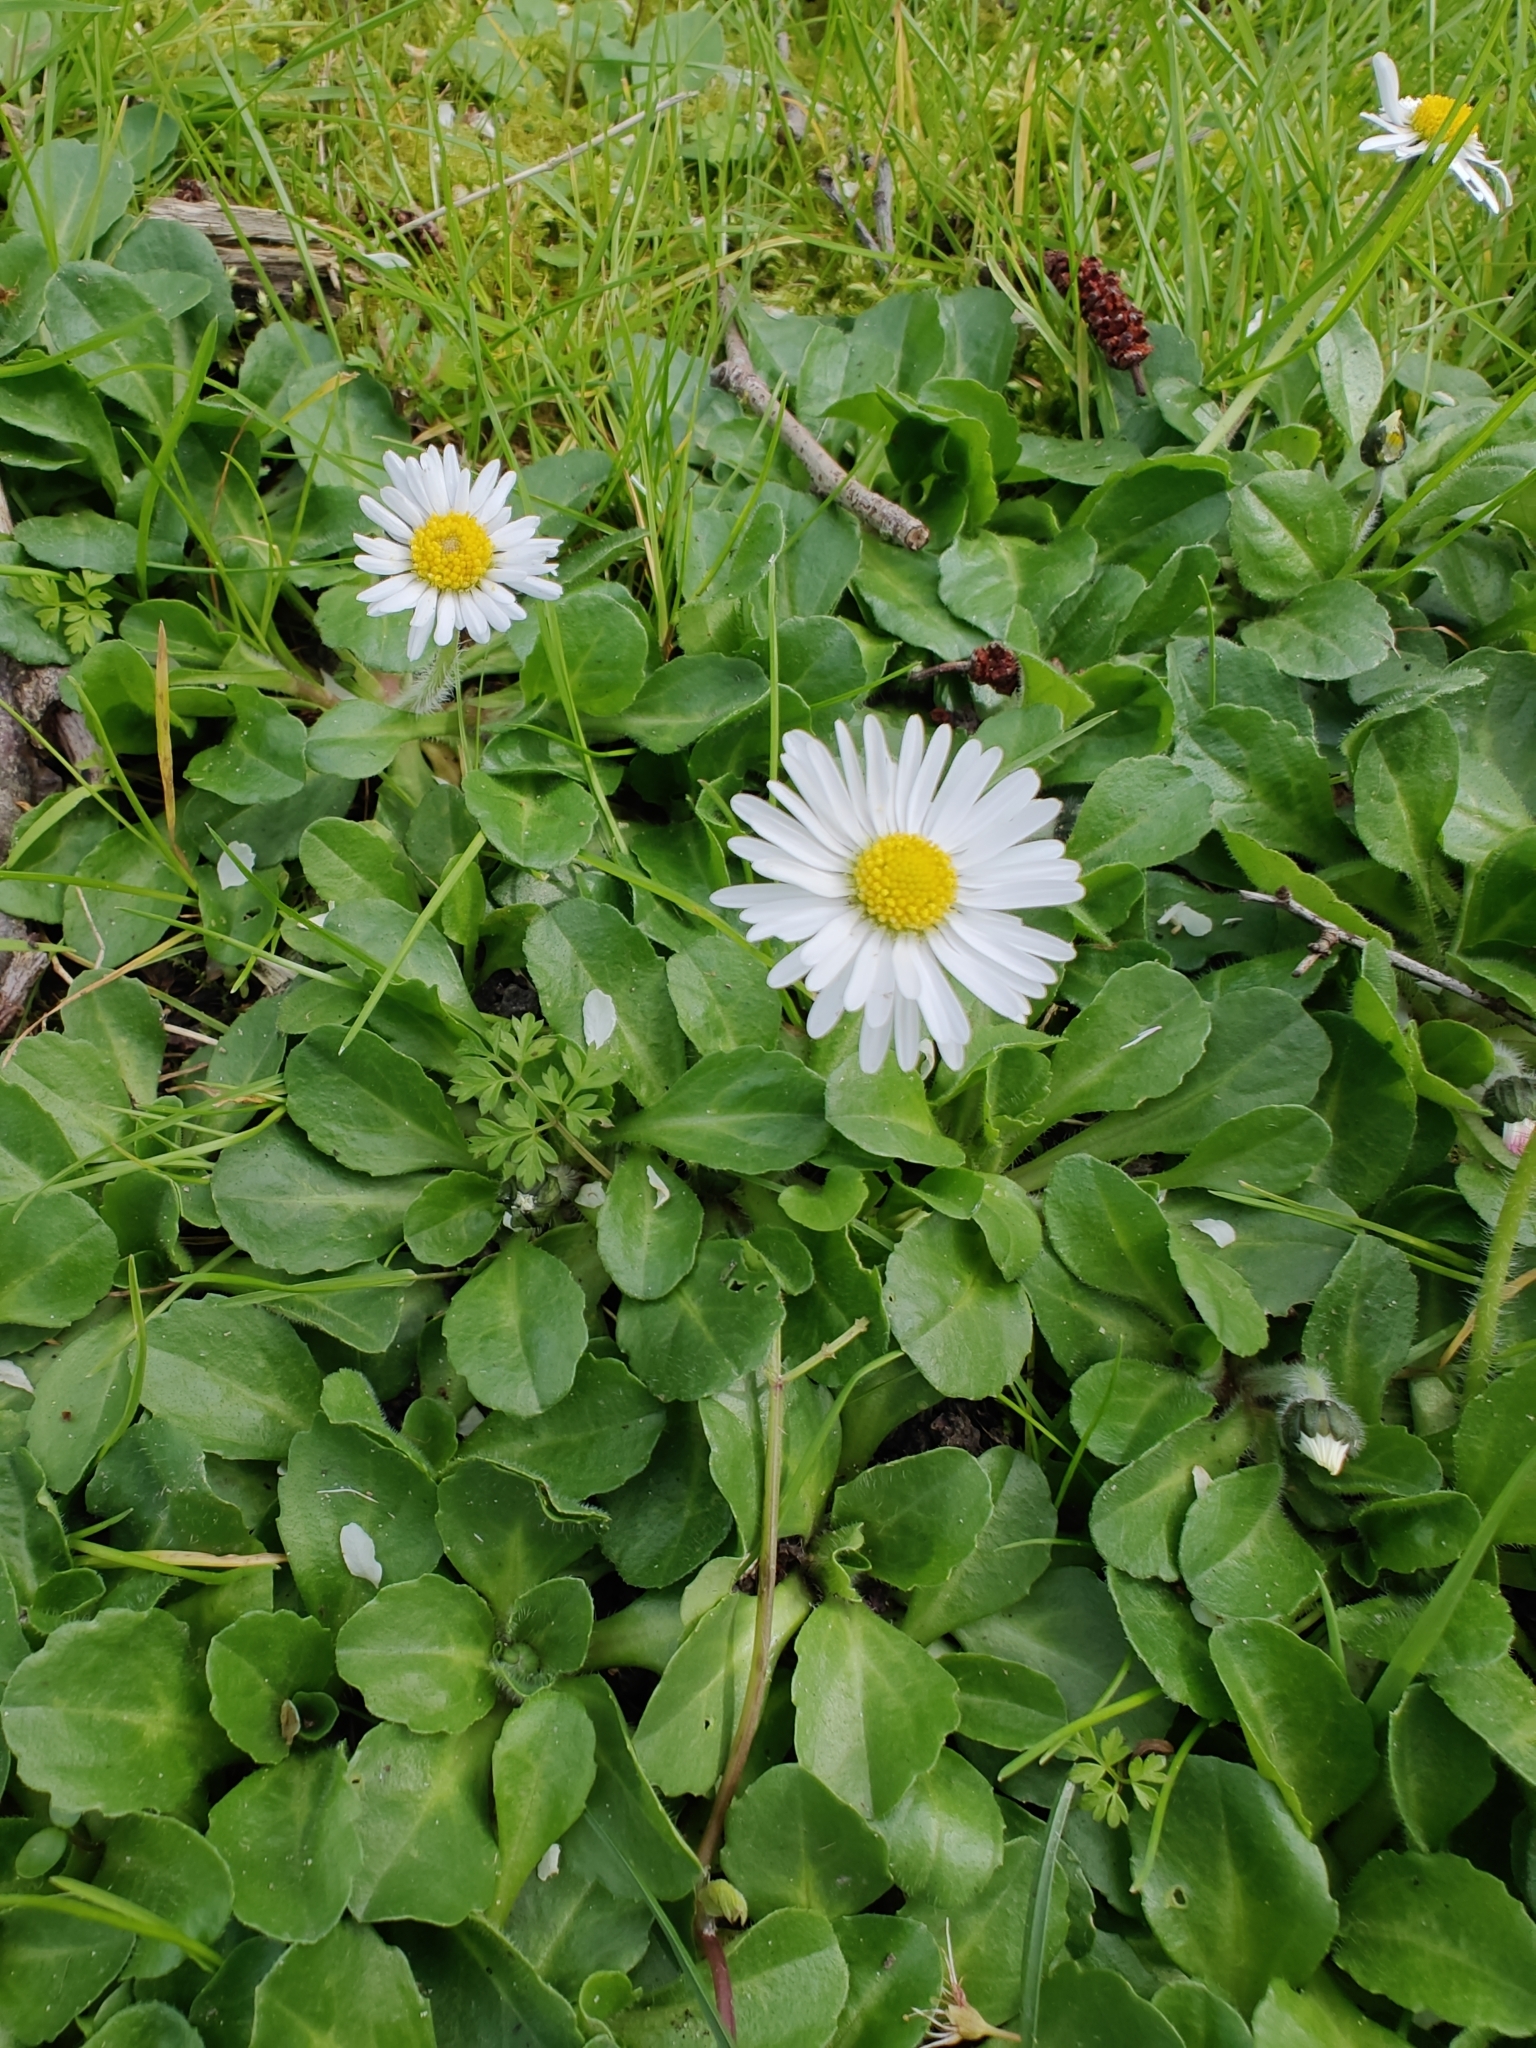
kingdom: Plantae
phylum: Tracheophyta
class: Magnoliopsida
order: Asterales
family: Asteraceae
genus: Bellis
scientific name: Bellis perennis
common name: Lawndaisy
